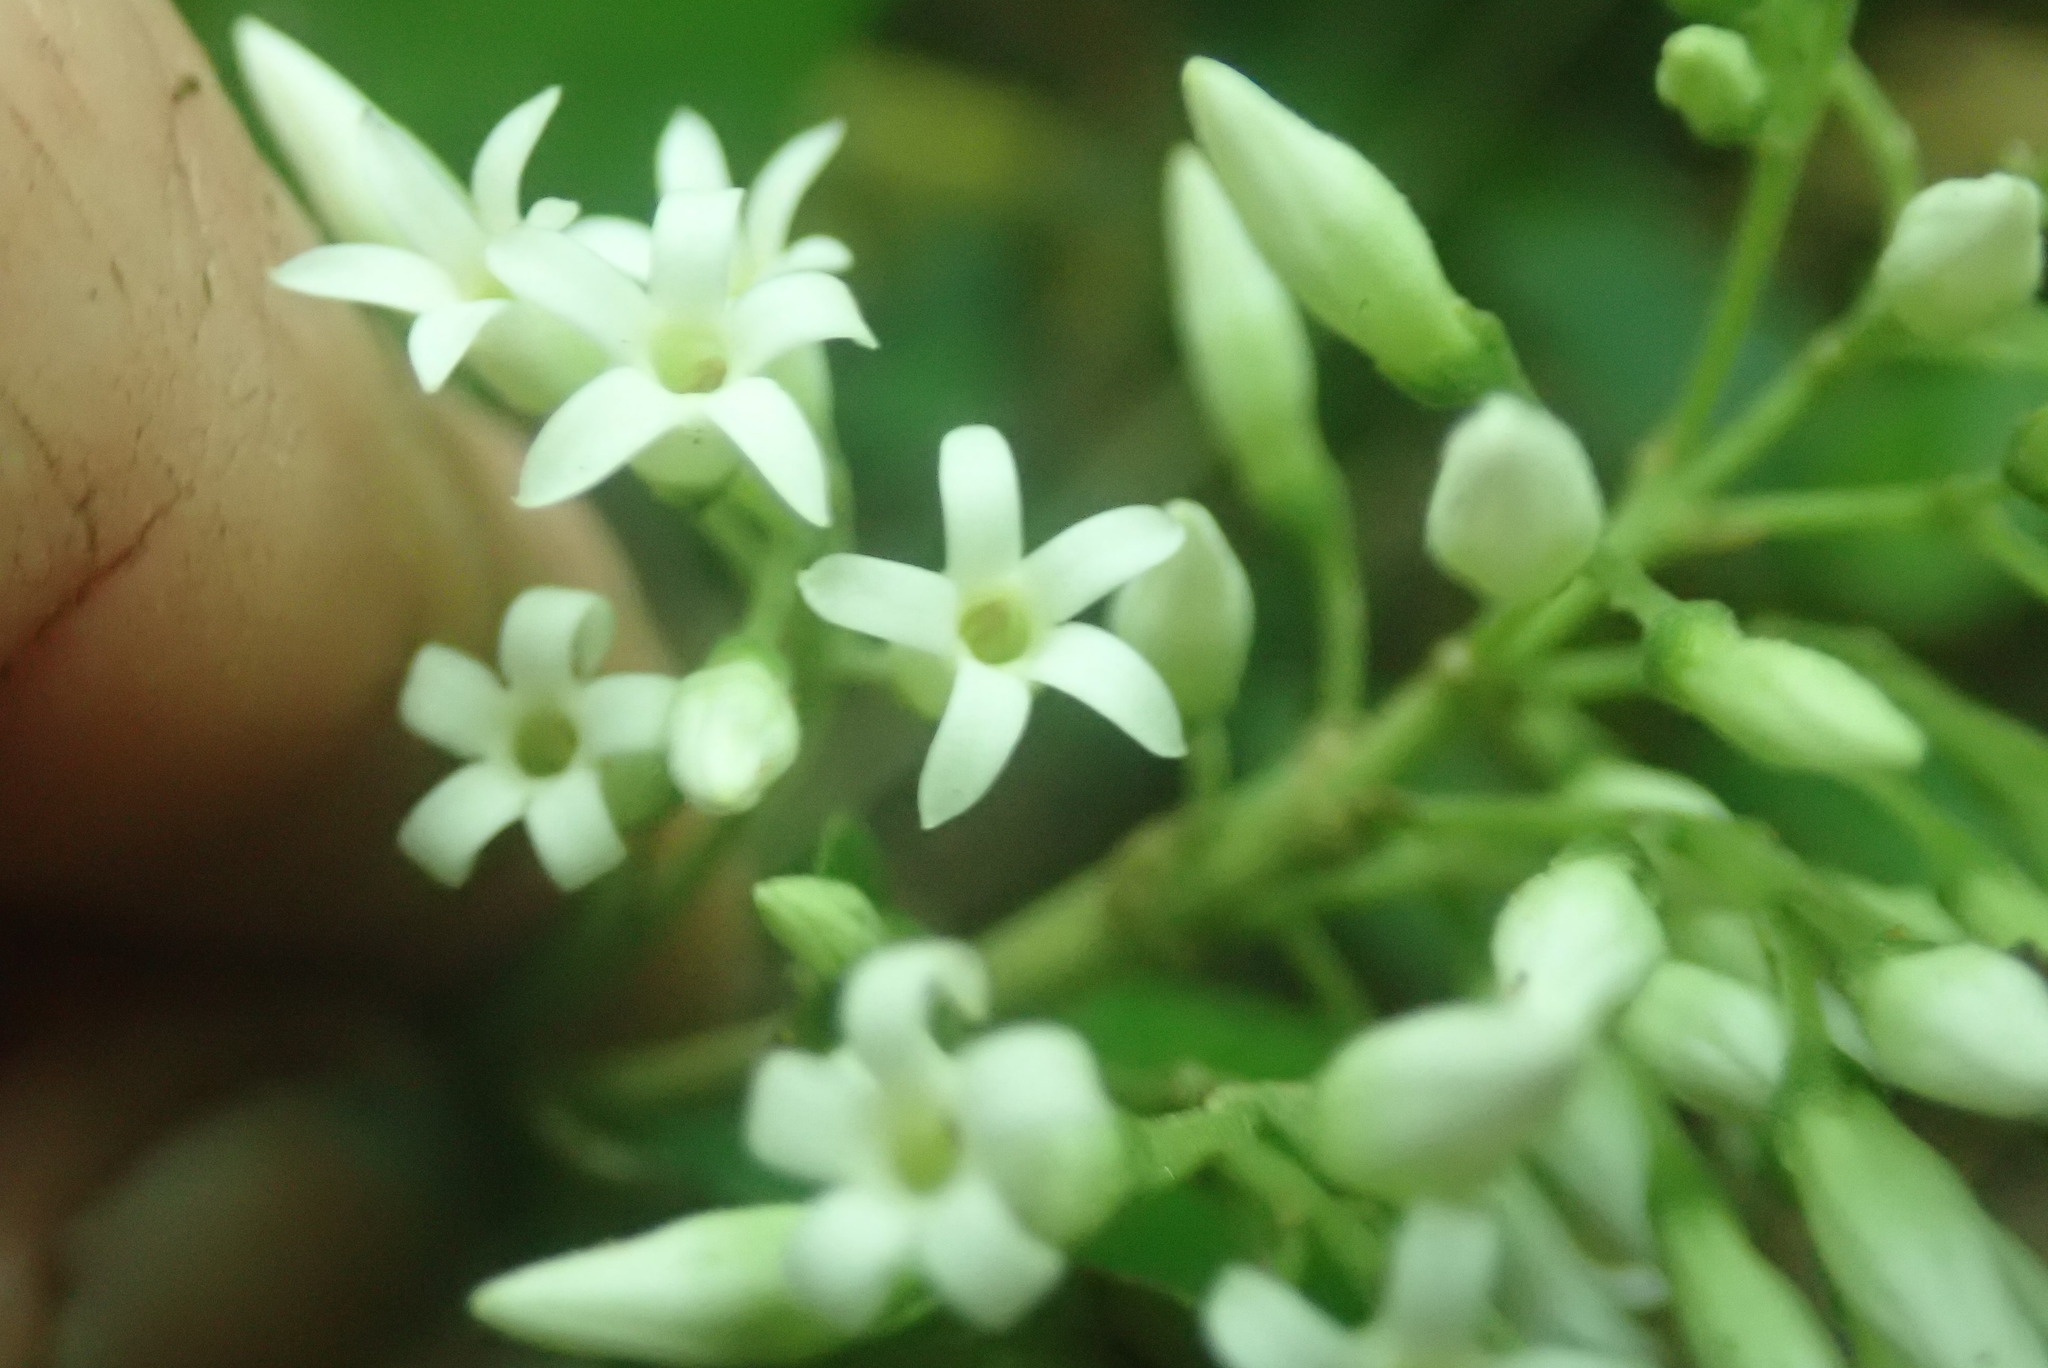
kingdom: Plantae
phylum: Tracheophyta
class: Magnoliopsida
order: Gentianales
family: Apocynaceae
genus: Parsonsia
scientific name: Parsonsia heterophylla
